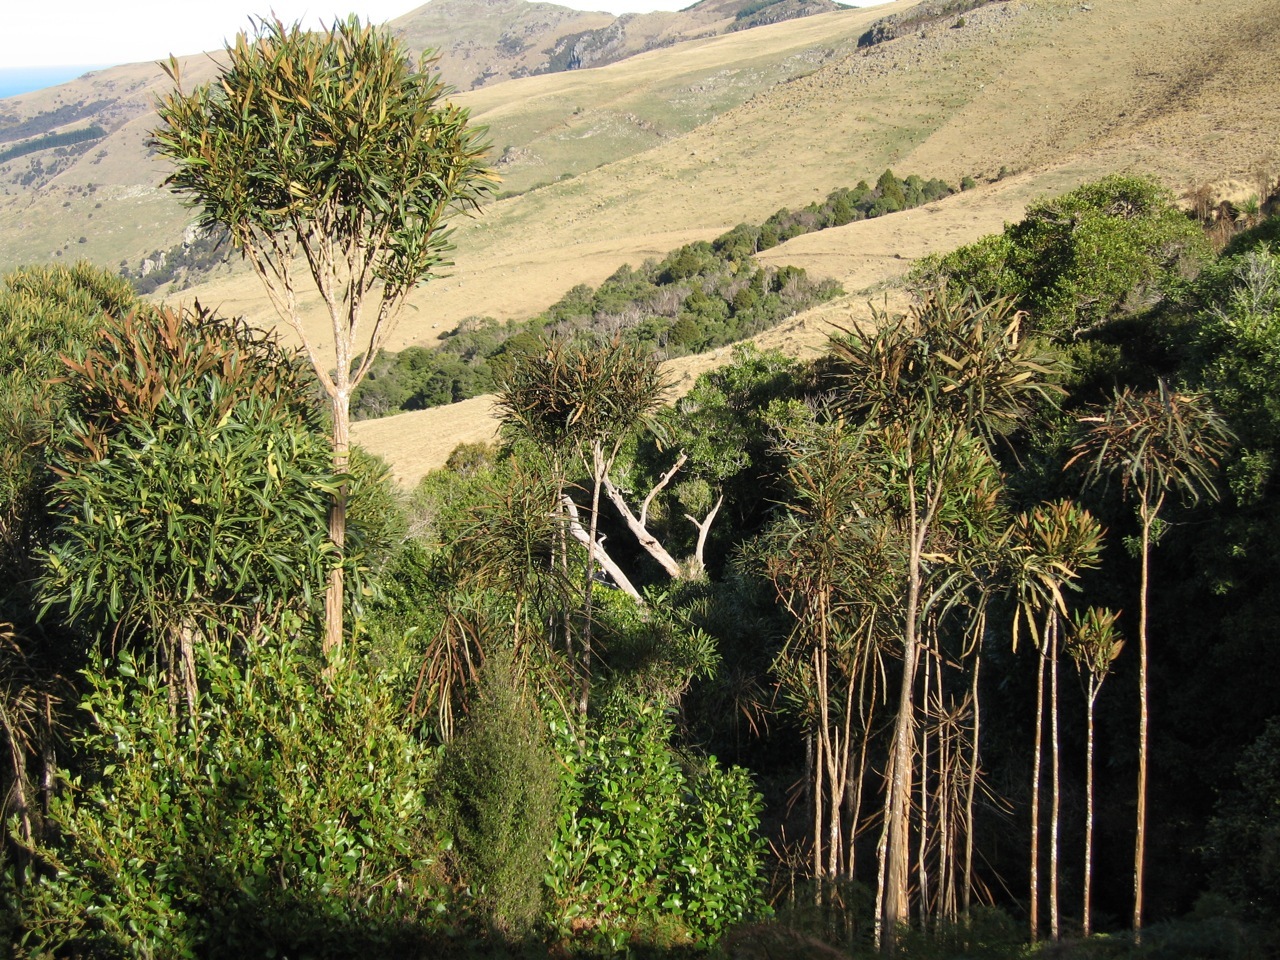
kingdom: Plantae
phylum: Tracheophyta
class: Magnoliopsida
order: Apiales
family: Araliaceae
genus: Pseudopanax
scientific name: Pseudopanax crassifolius
